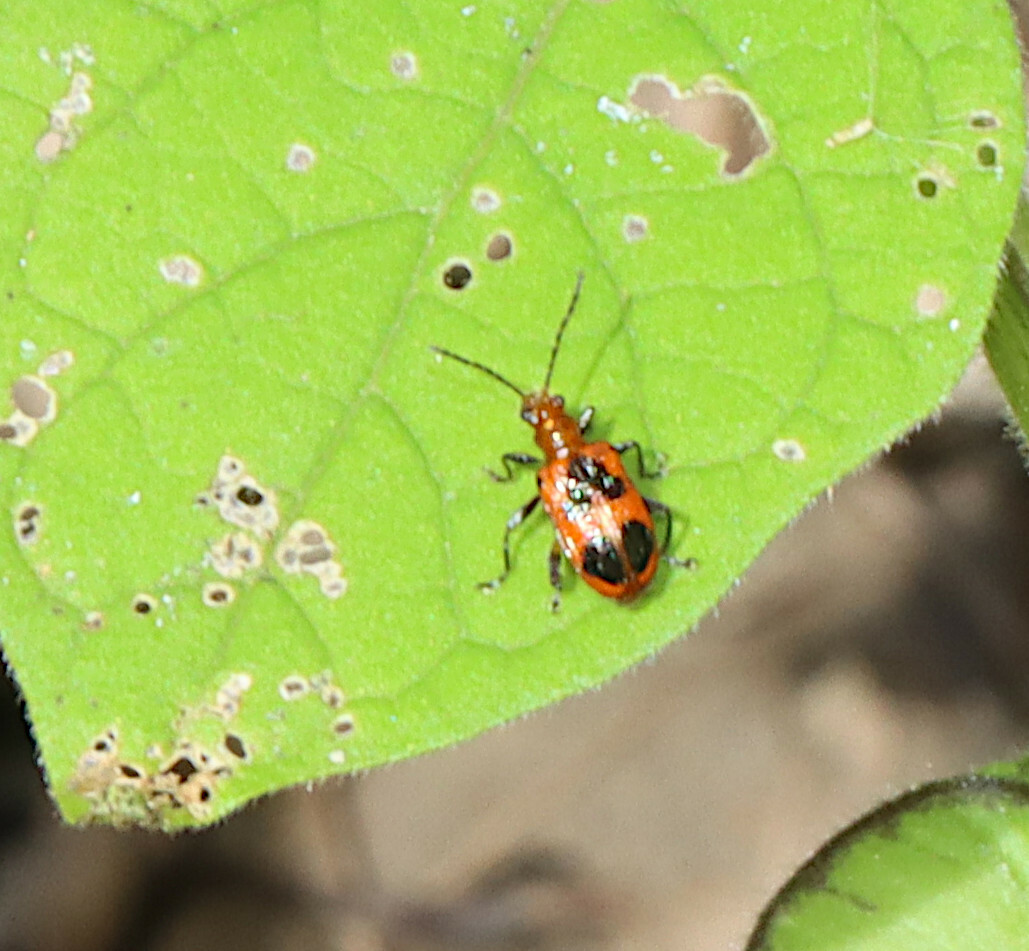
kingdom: Animalia
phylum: Arthropoda
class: Insecta
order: Coleoptera
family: Chrysomelidae
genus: Neolema
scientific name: Neolema cordata
